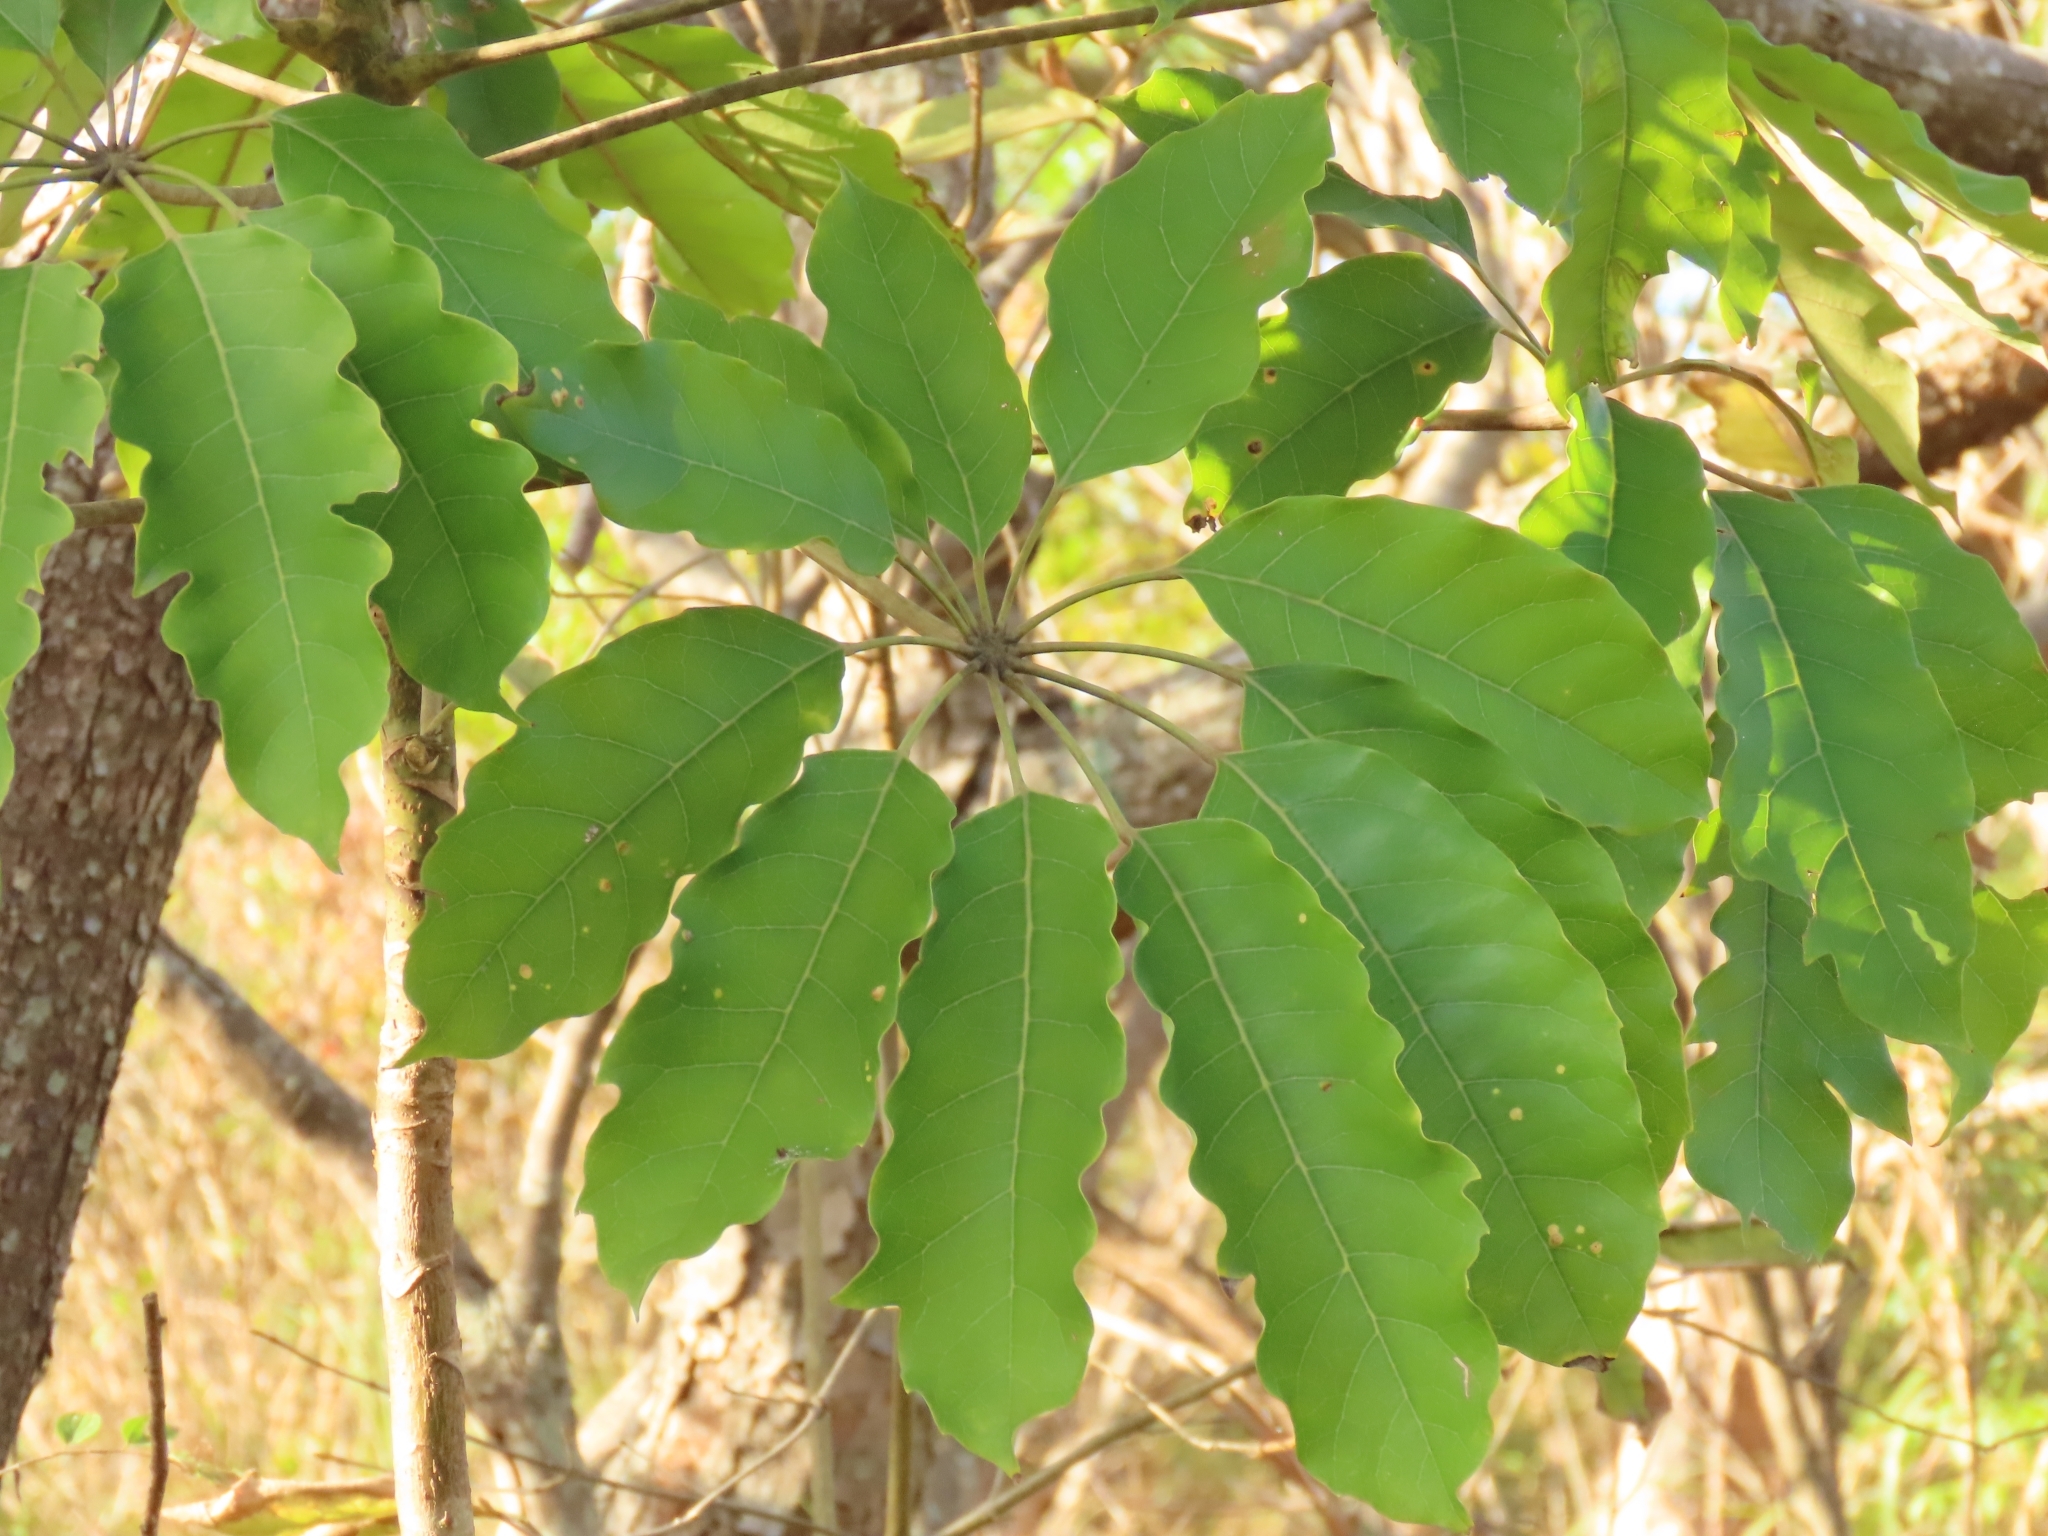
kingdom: Plantae
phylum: Tracheophyta
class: Magnoliopsida
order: Apiales
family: Araliaceae
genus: Heptapleurum
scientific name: Heptapleurum heptaphyllum
